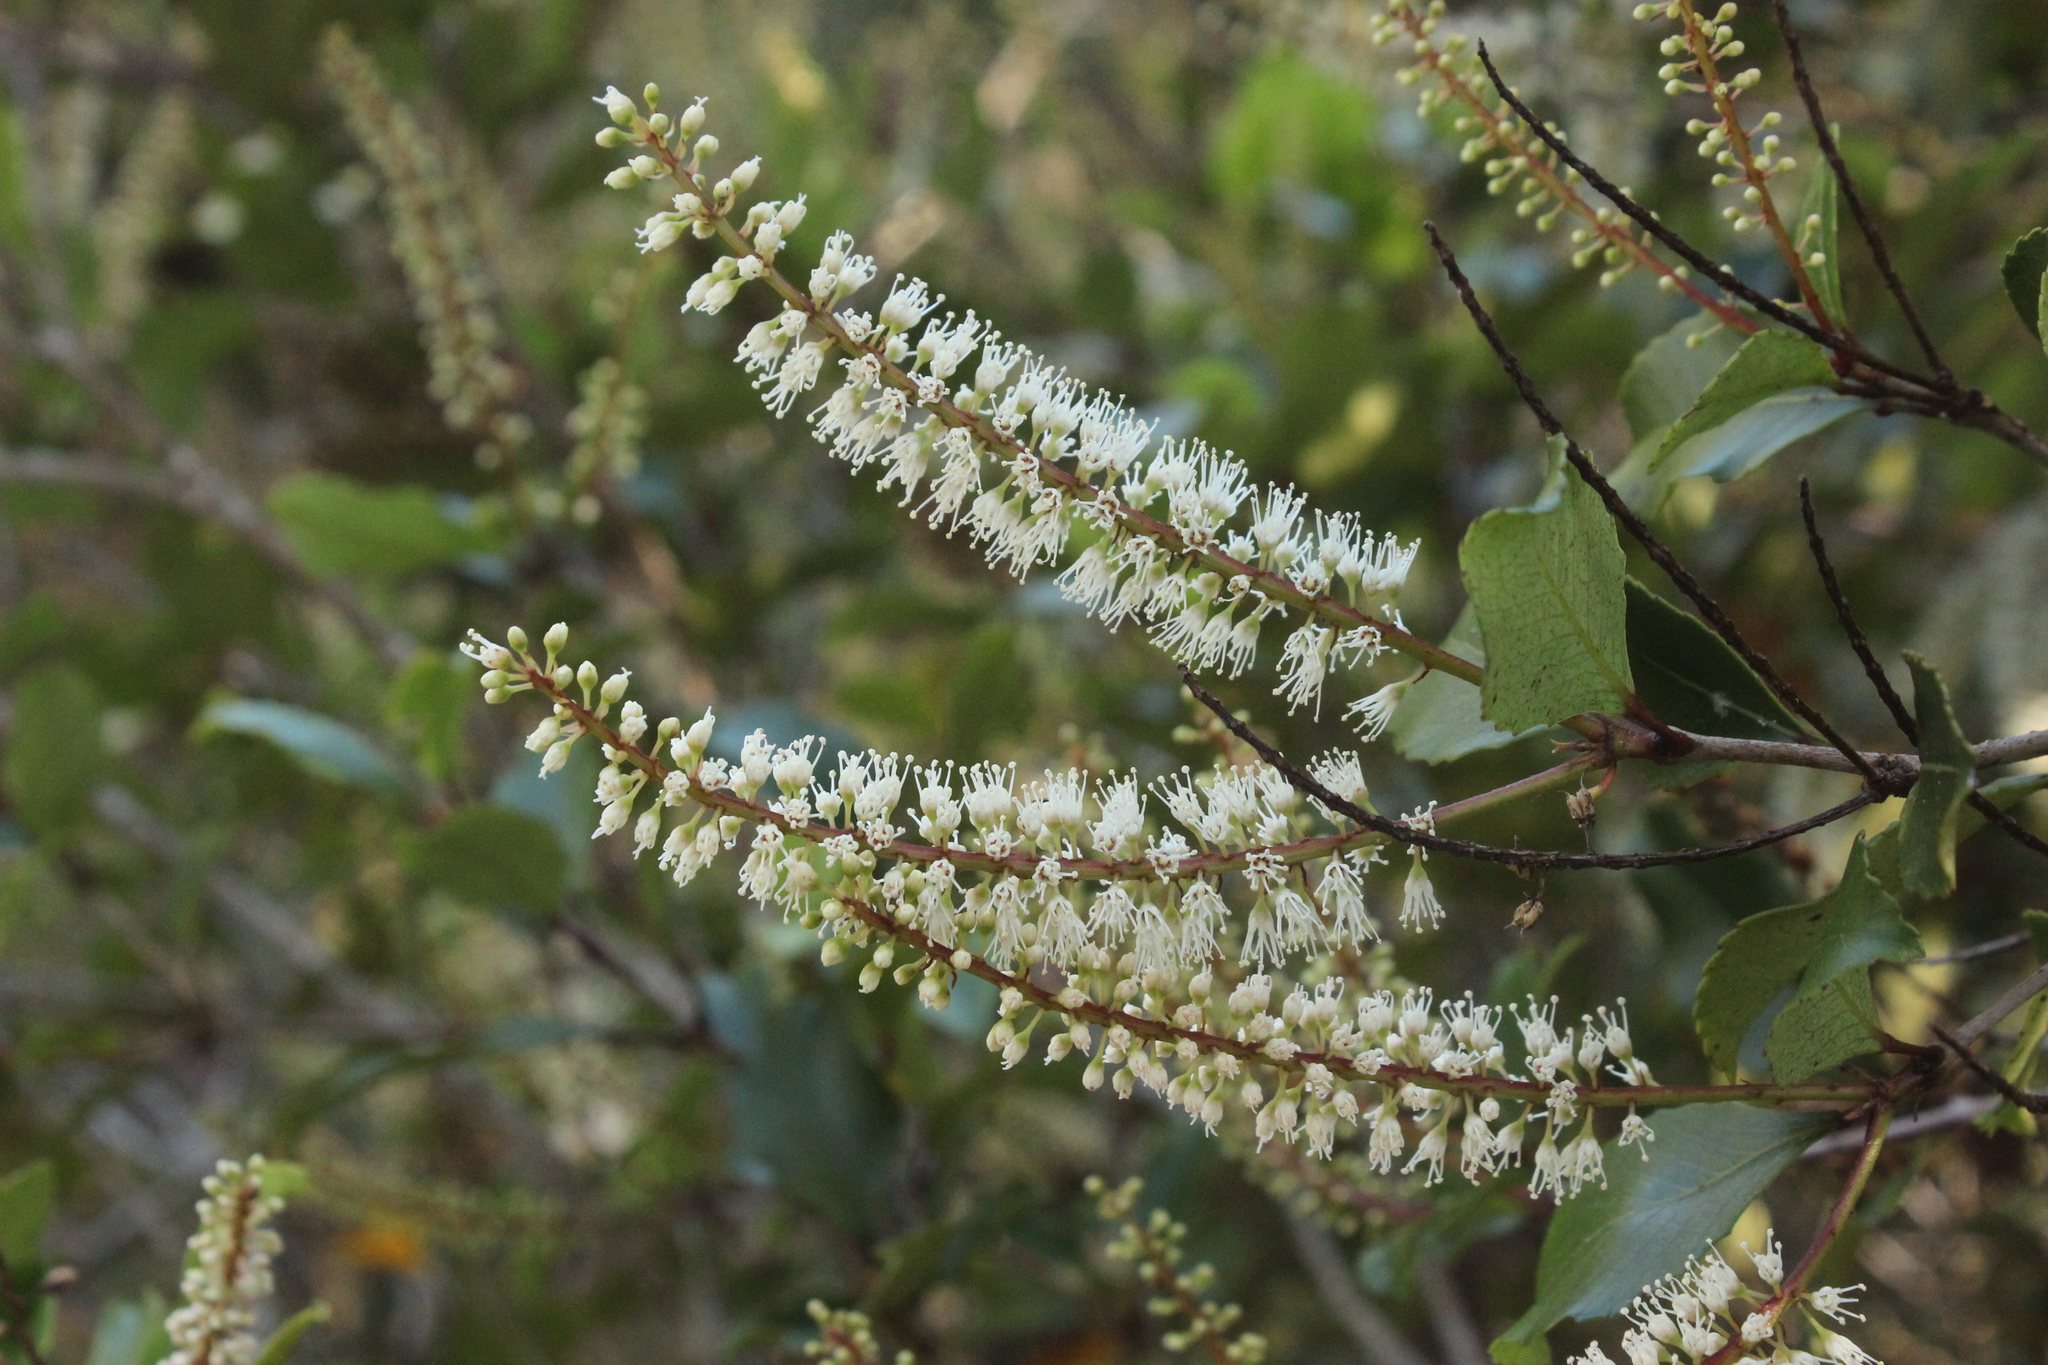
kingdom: Plantae
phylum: Tracheophyta
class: Magnoliopsida
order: Oxalidales
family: Cunoniaceae
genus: Pterophylla
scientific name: Pterophylla racemosa
